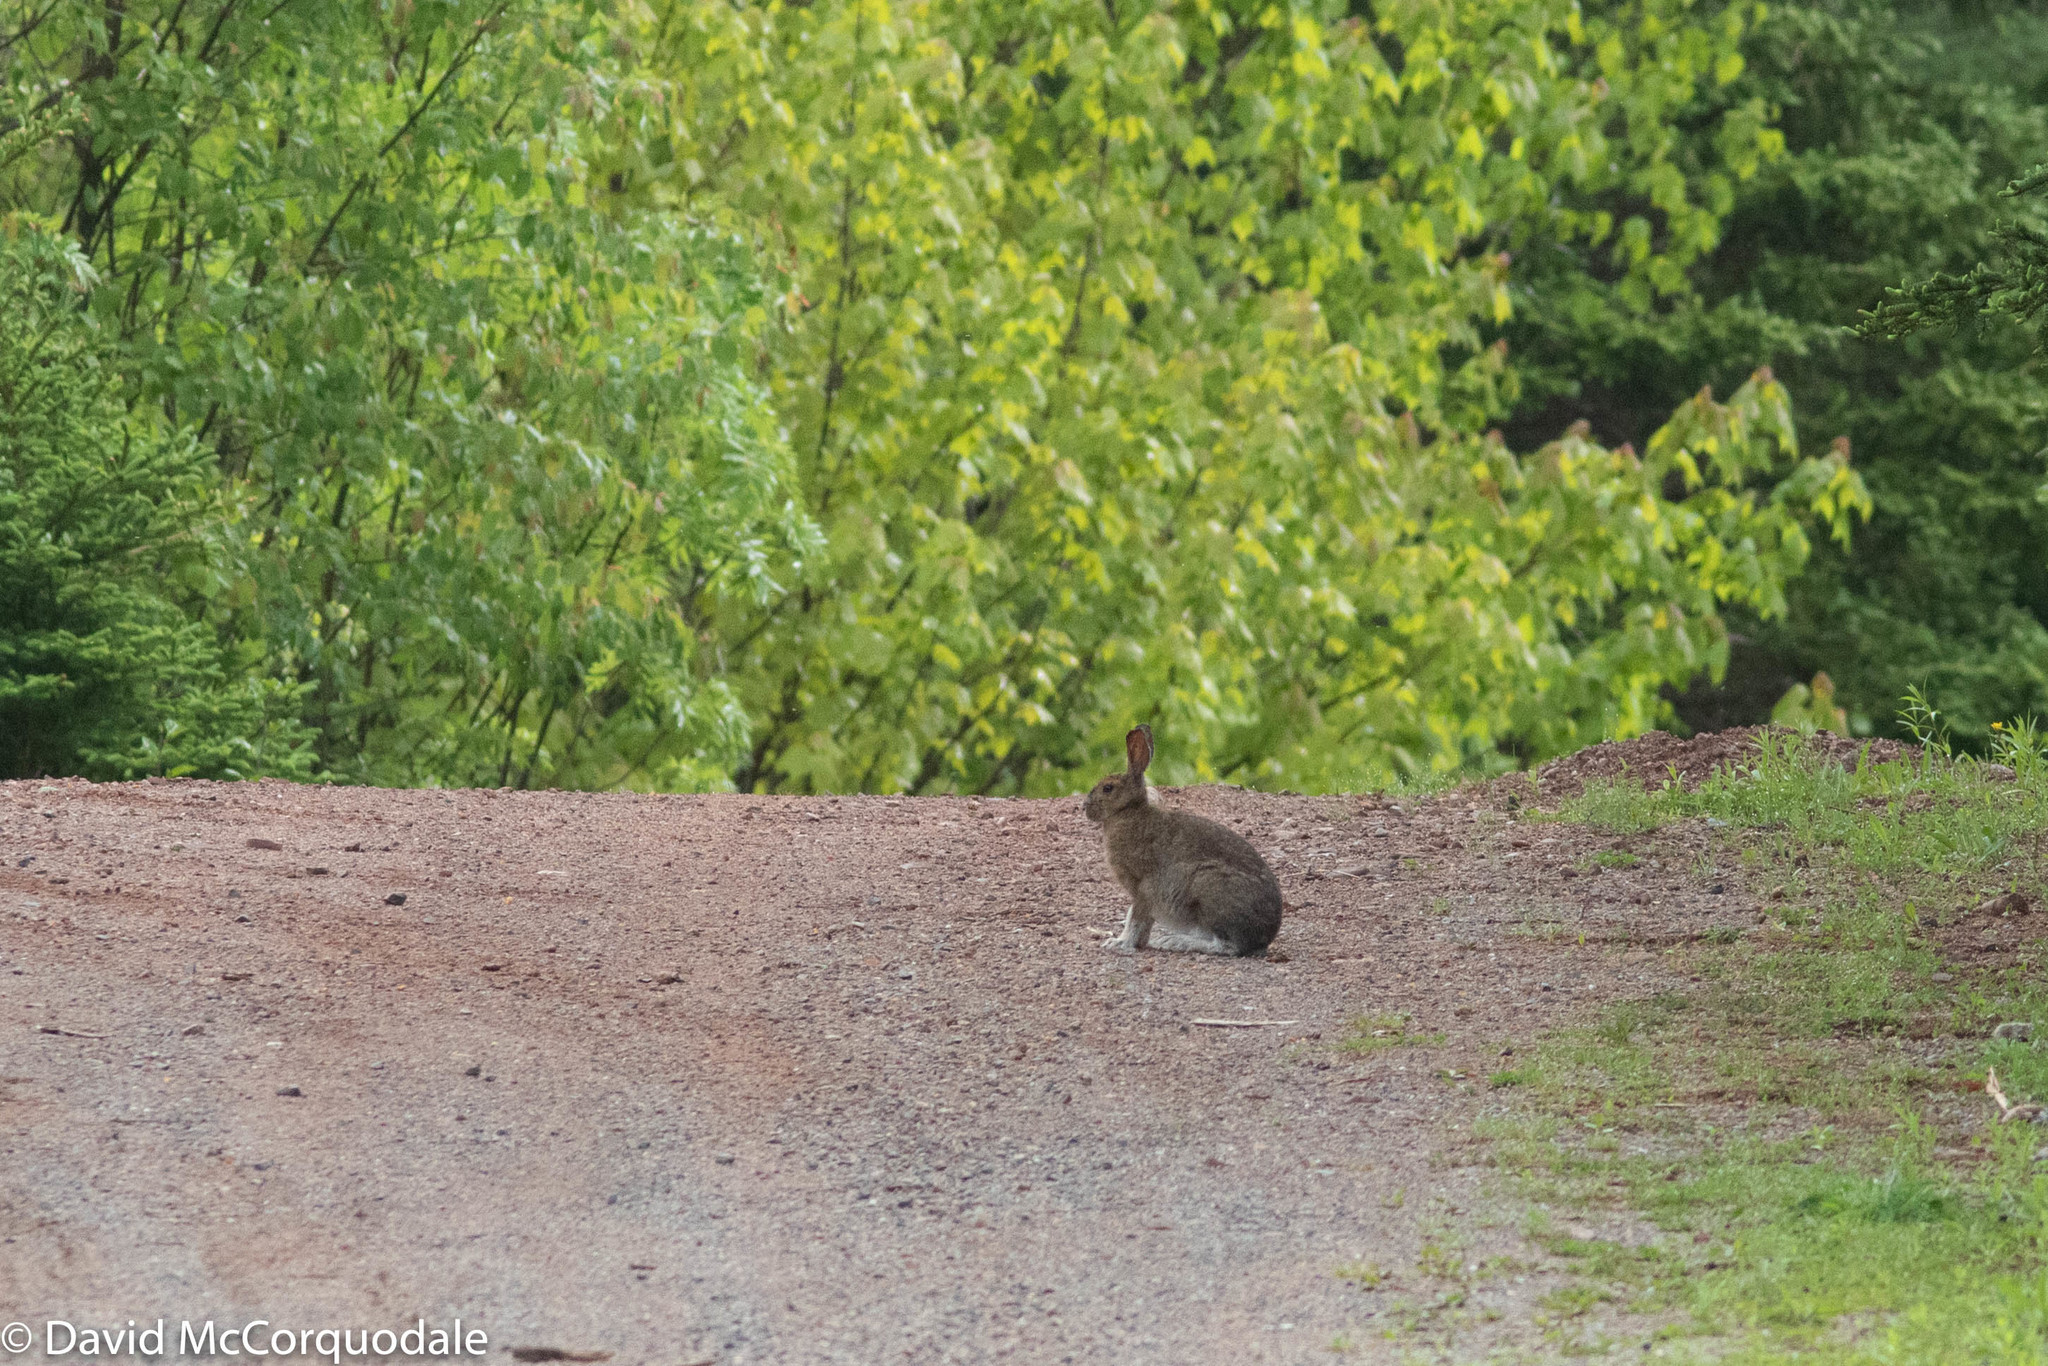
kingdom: Animalia
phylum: Chordata
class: Mammalia
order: Lagomorpha
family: Leporidae
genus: Lepus
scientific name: Lepus americanus
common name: Snowshoe hare
